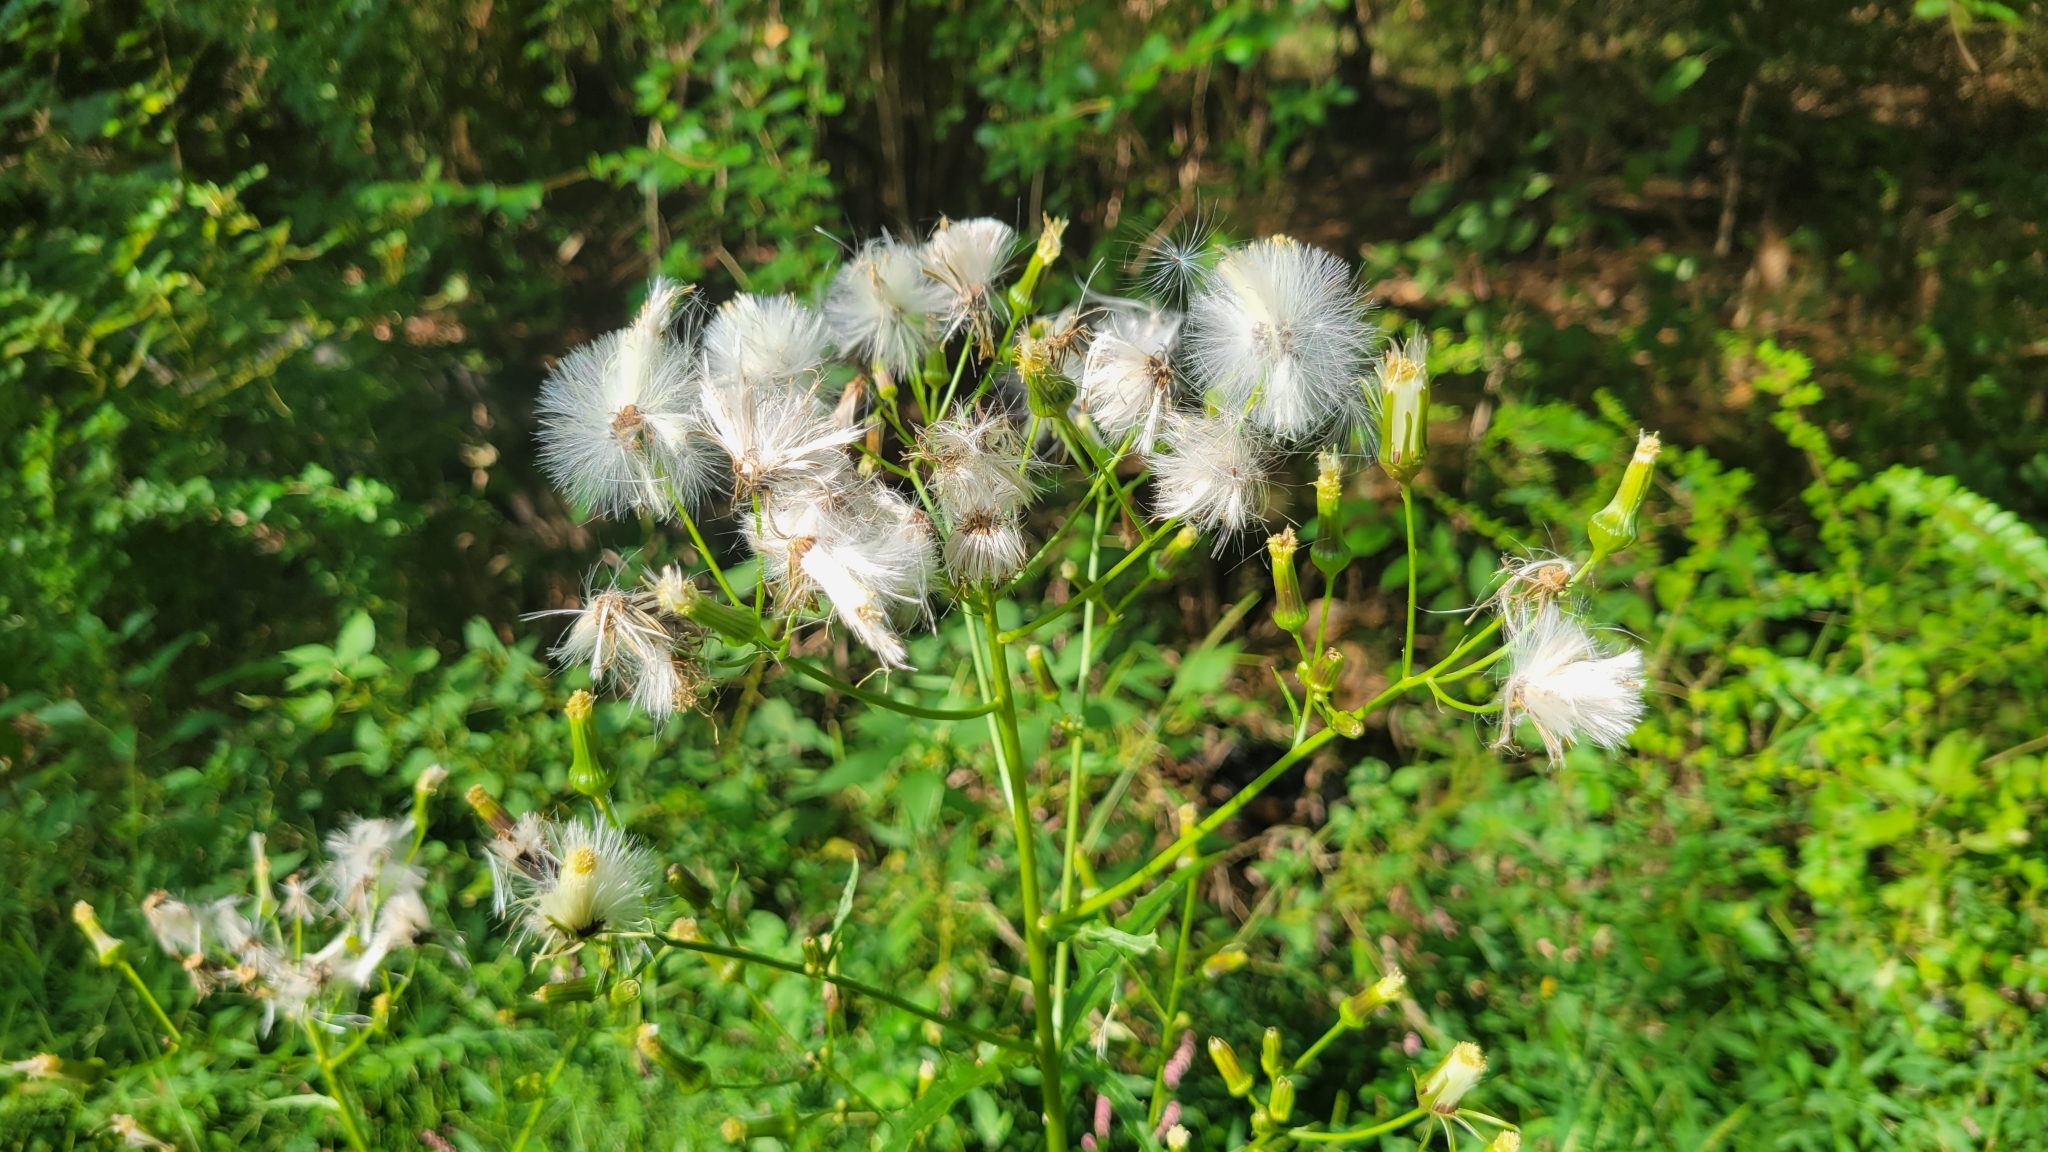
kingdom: Plantae
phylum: Tracheophyta
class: Magnoliopsida
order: Asterales
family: Asteraceae
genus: Erechtites
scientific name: Erechtites hieraciifolius
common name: American burnweed
